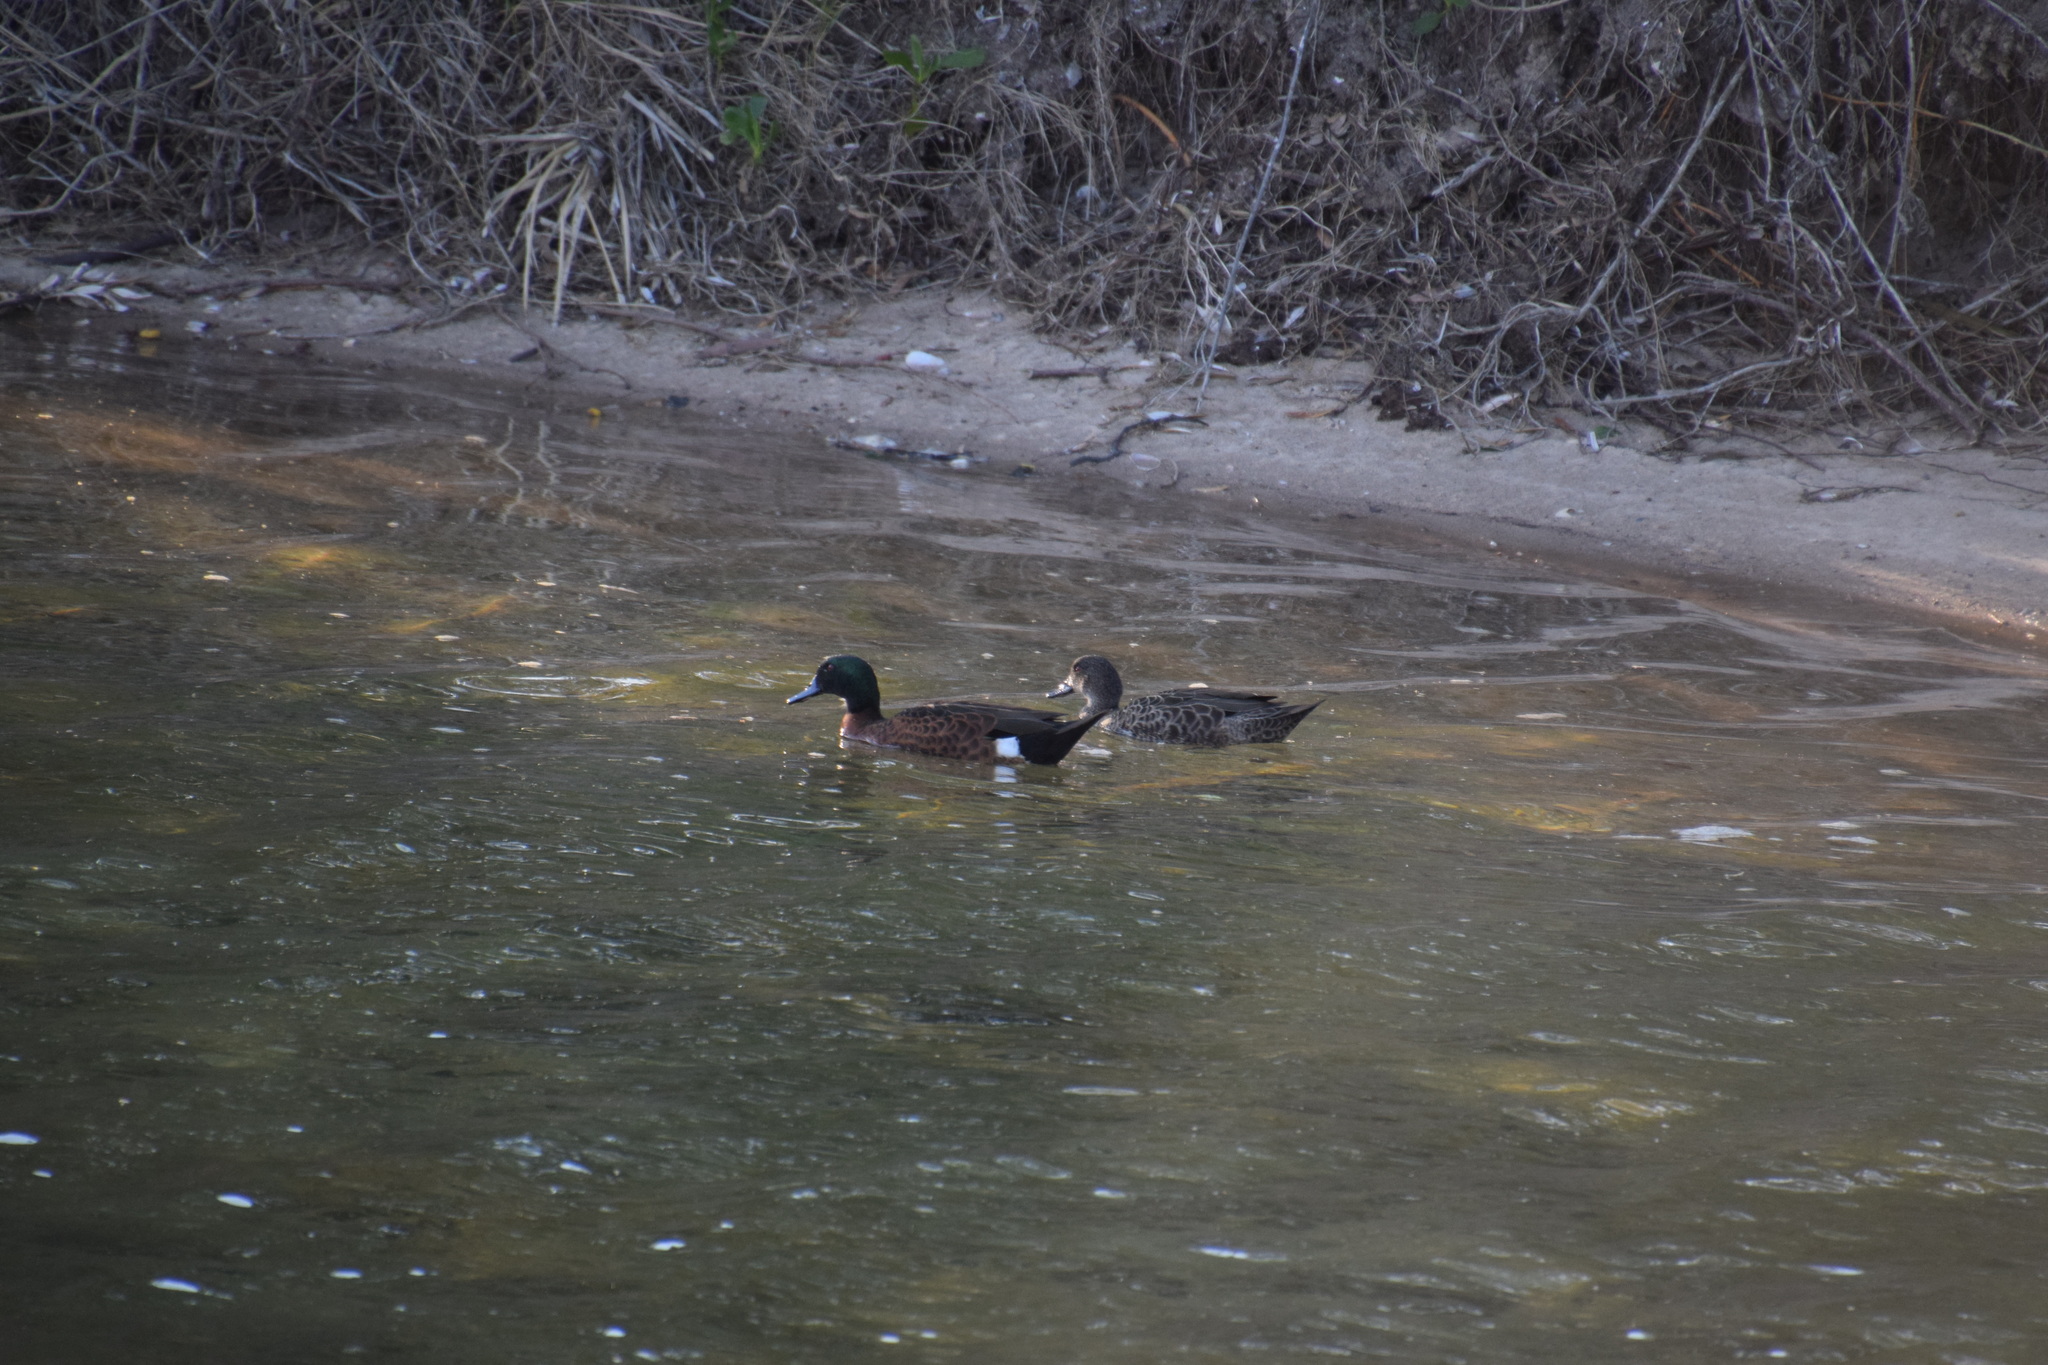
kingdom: Animalia
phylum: Chordata
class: Aves
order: Anseriformes
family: Anatidae
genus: Anas
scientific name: Anas castanea
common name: Chestnut teal
